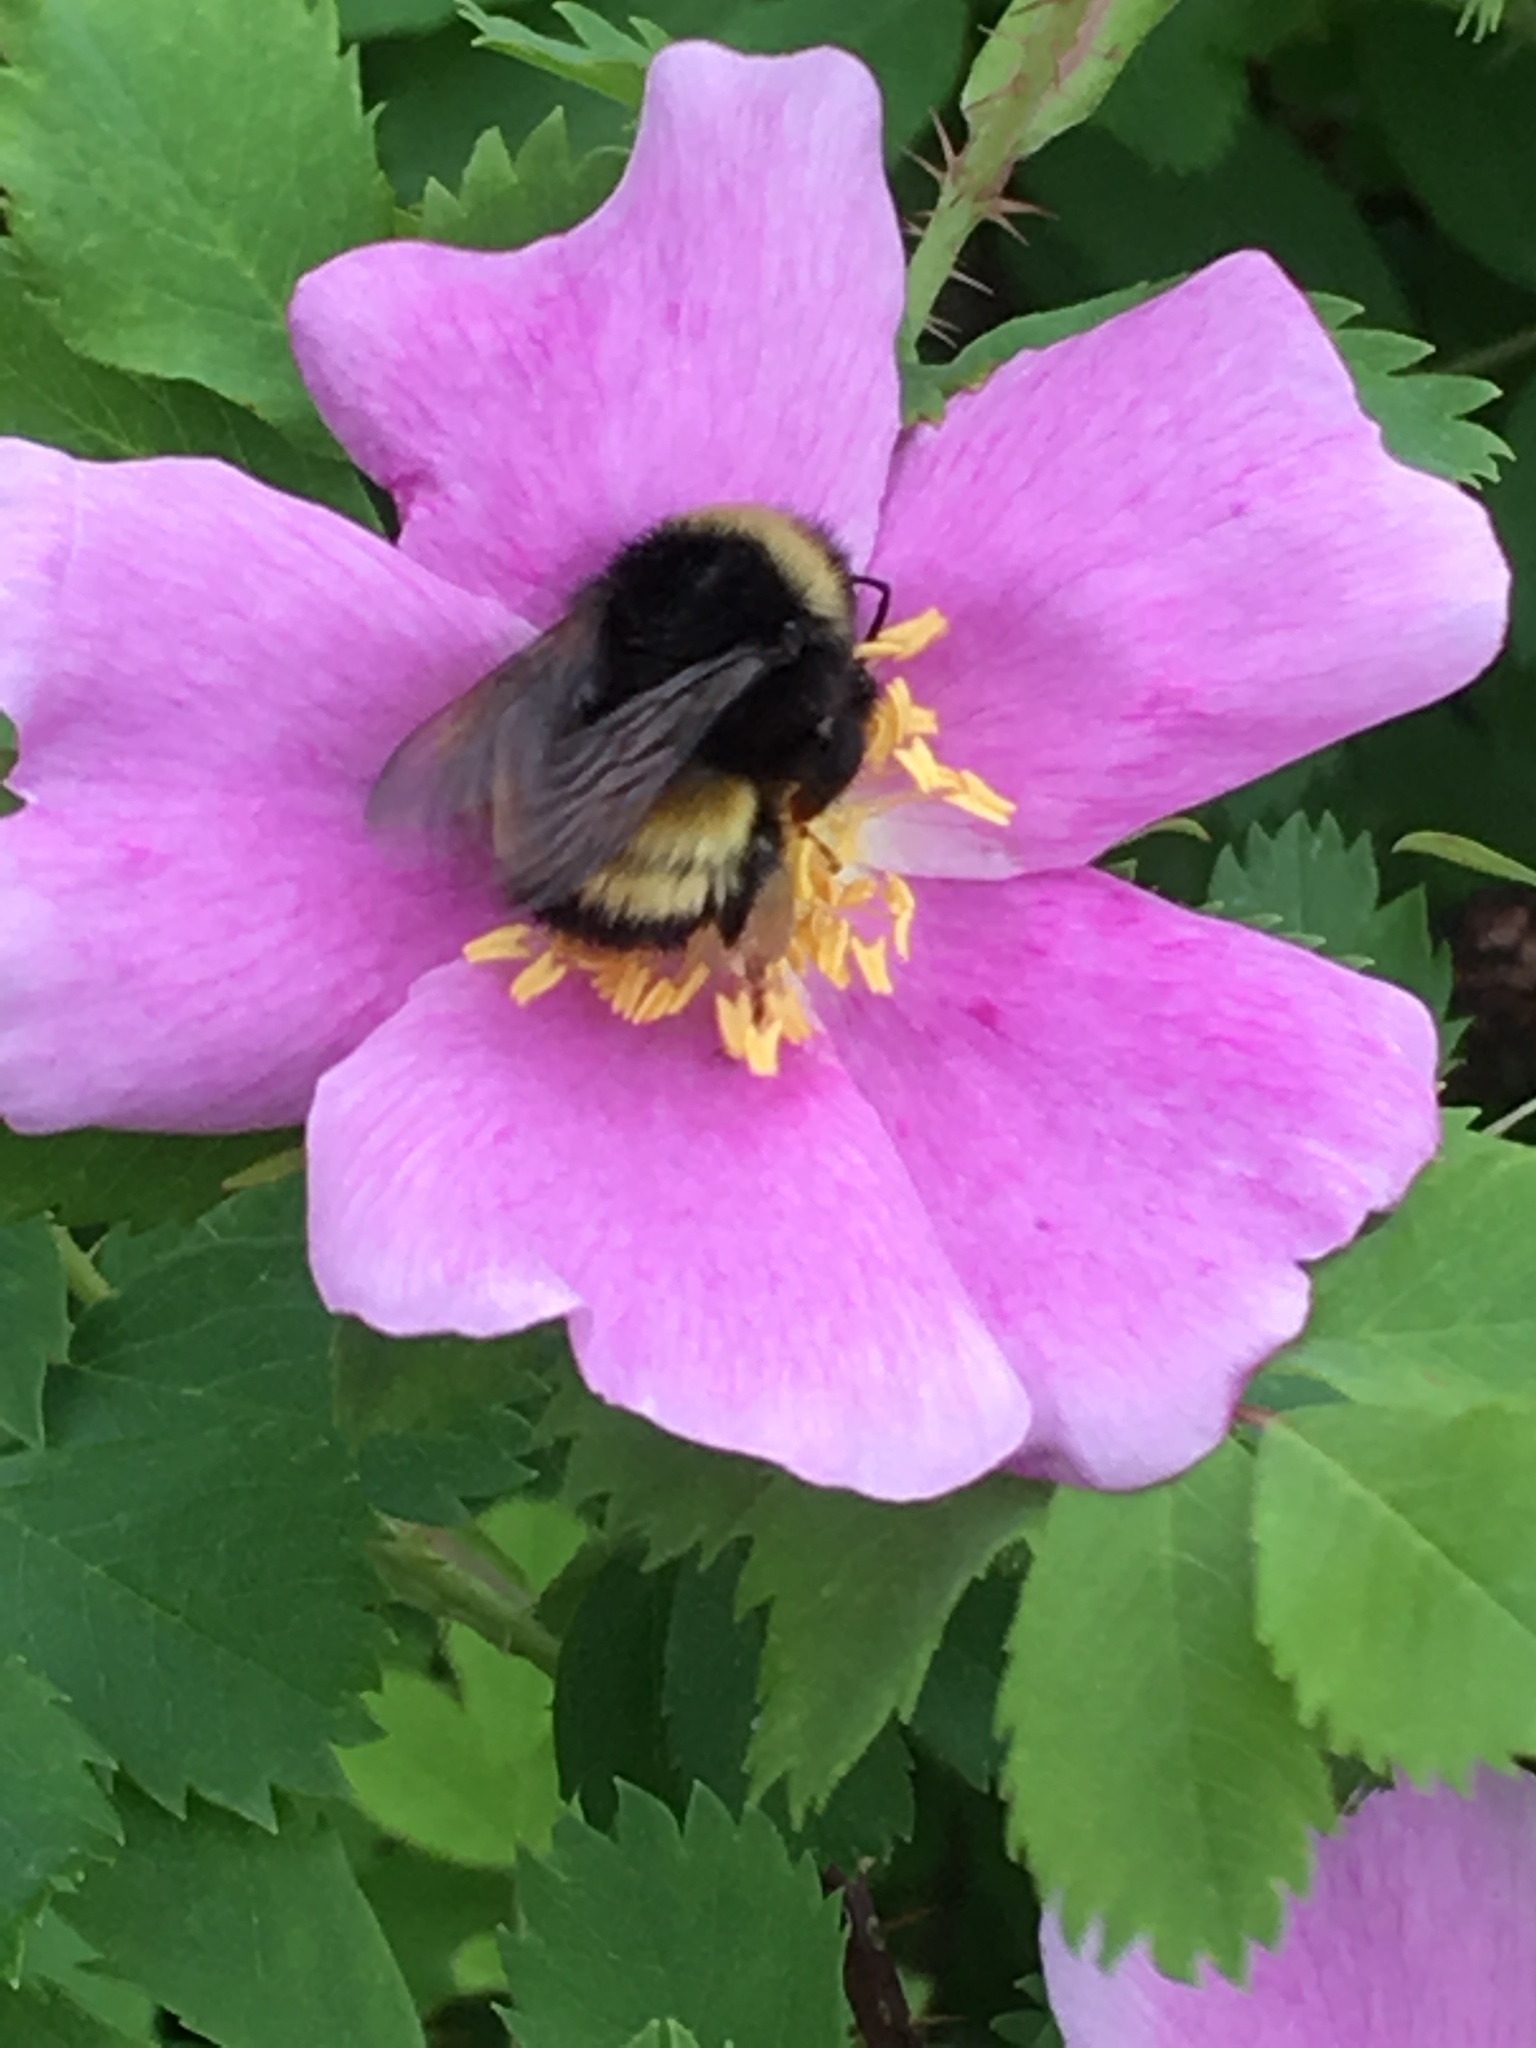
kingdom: Animalia
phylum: Arthropoda
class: Insecta
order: Hymenoptera
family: Apidae
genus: Bombus
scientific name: Bombus terricola
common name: Yellow-banded bumble bee
